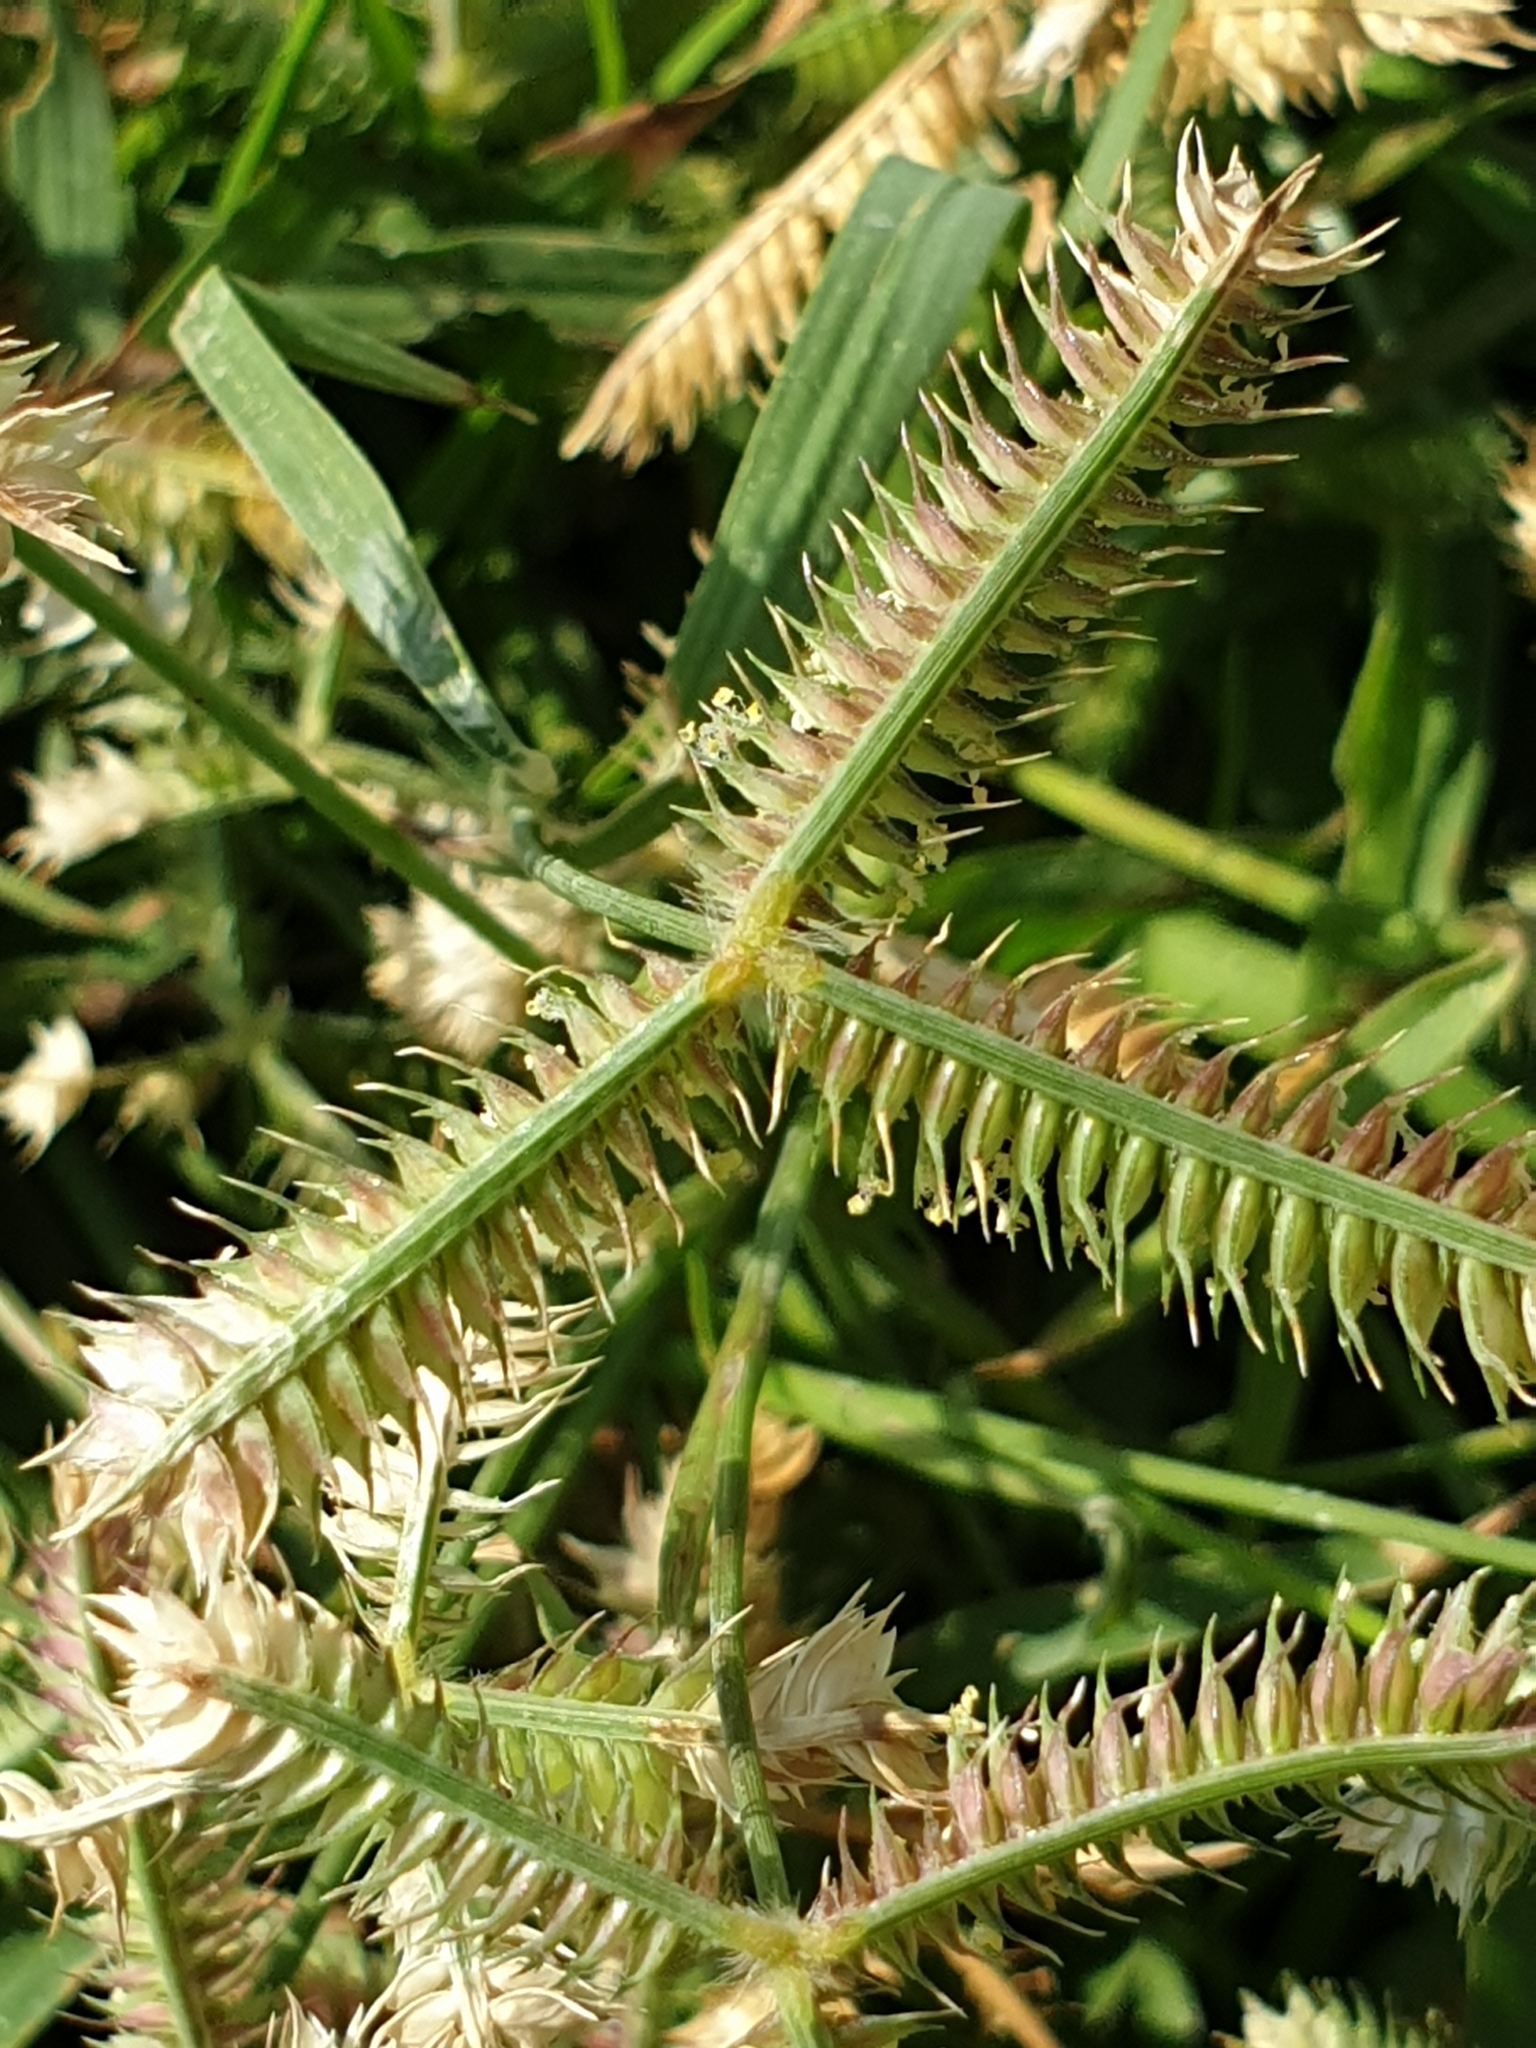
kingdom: Plantae
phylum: Tracheophyta
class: Liliopsida
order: Poales
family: Poaceae
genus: Dactyloctenium
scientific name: Dactyloctenium aegyptium
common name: Egyptian grass
